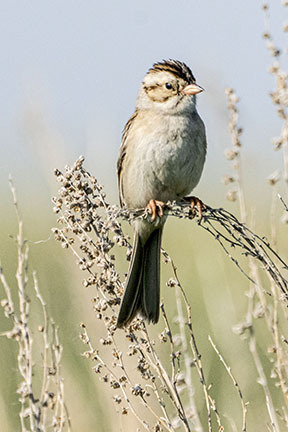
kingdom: Animalia
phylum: Chordata
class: Aves
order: Passeriformes
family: Passerellidae
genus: Spizella
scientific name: Spizella pallida
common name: Clay-colored sparrow
